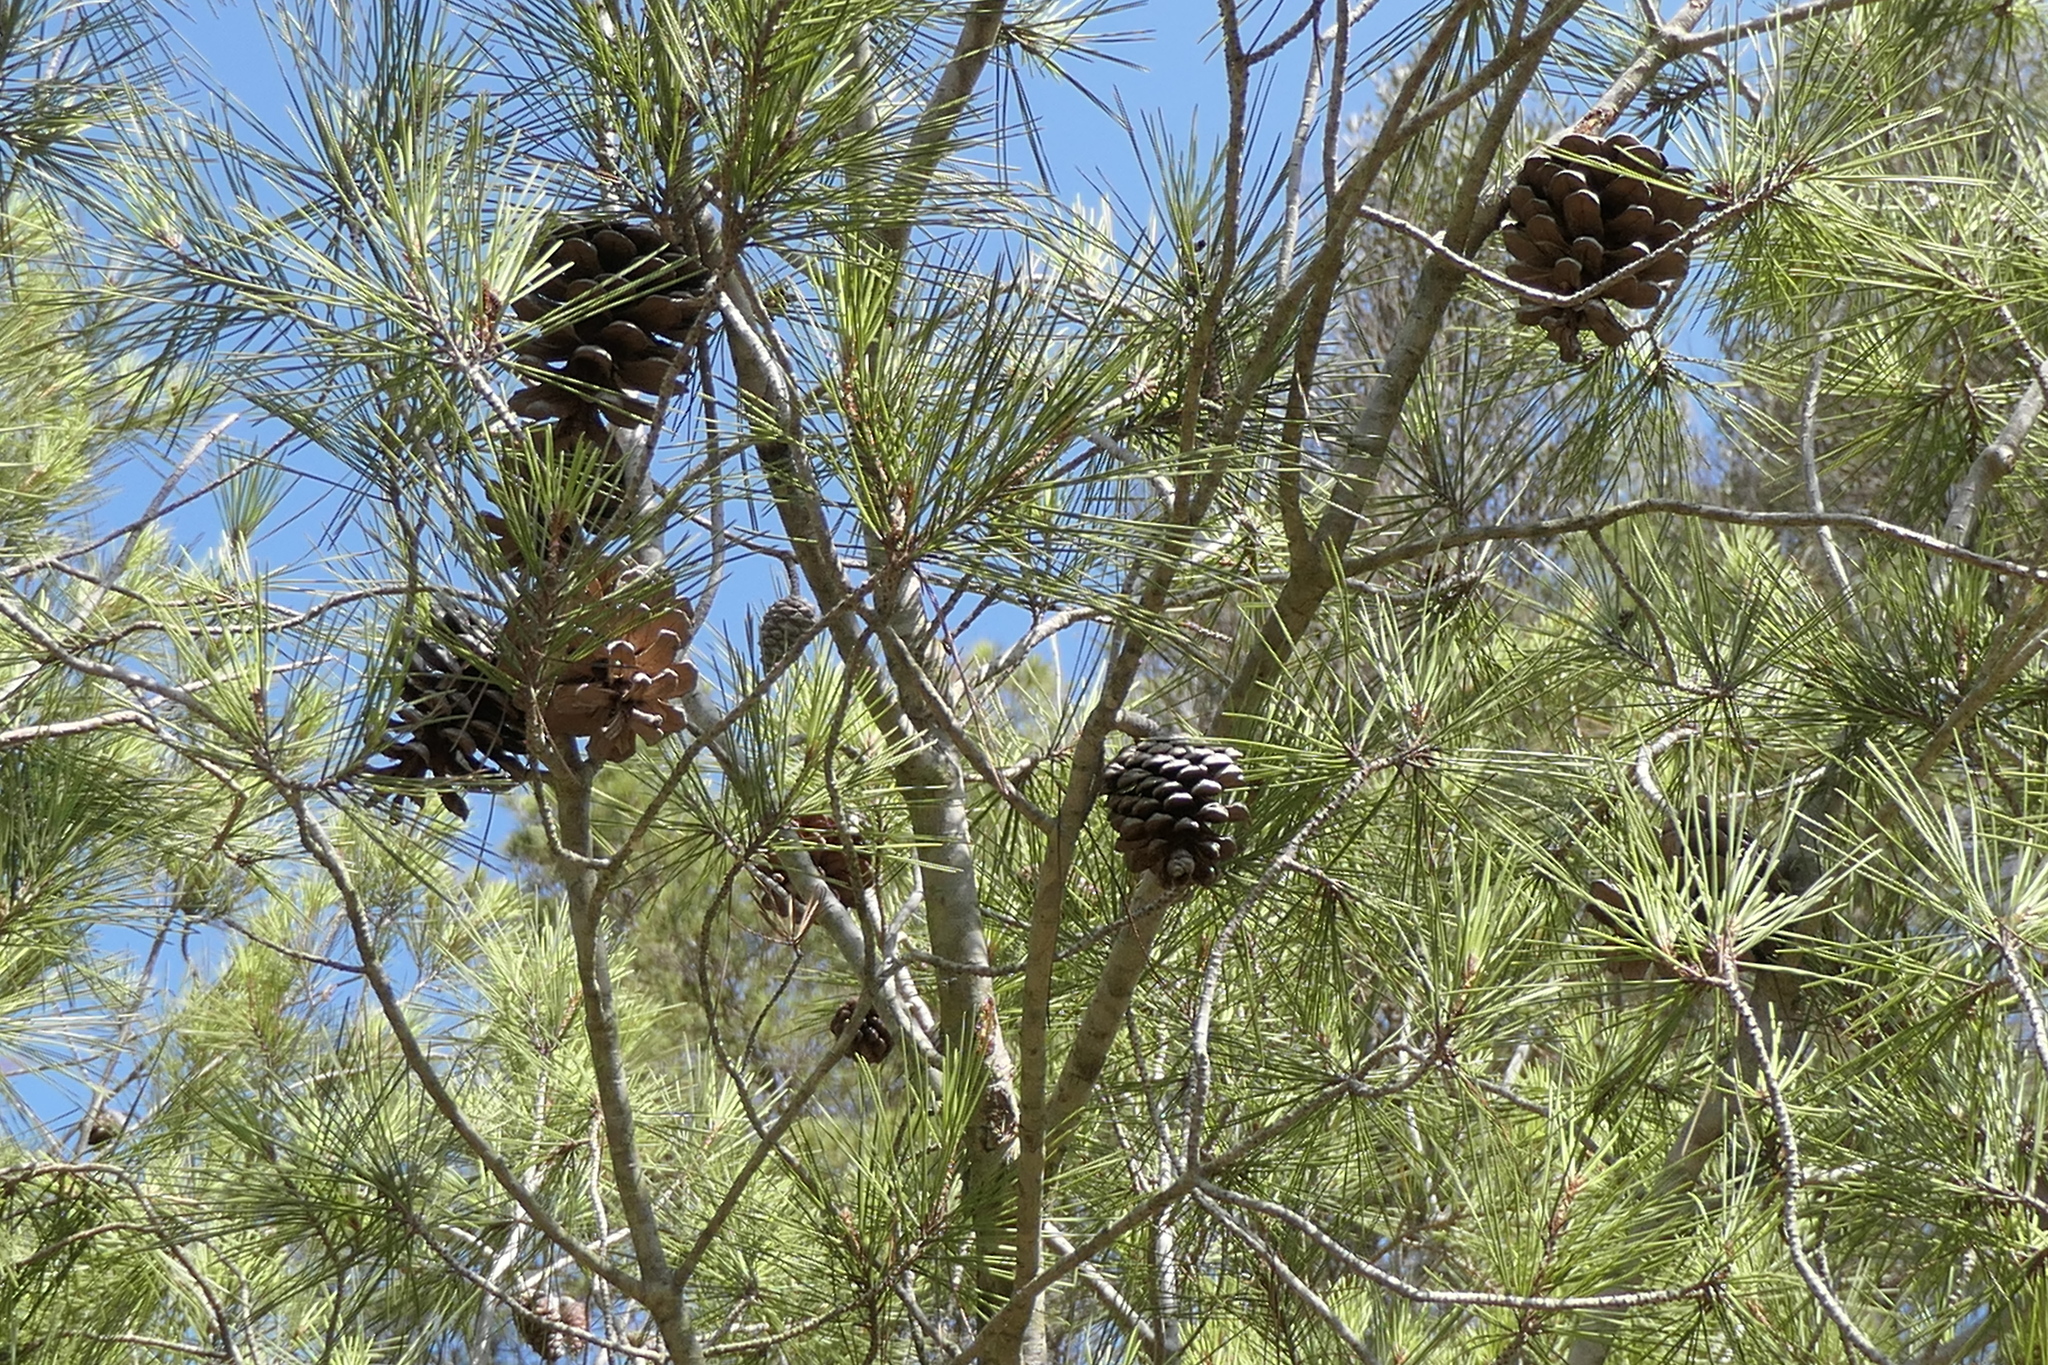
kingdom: Plantae
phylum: Tracheophyta
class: Pinopsida
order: Pinales
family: Pinaceae
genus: Pinus
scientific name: Pinus halepensis
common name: Aleppo pine
